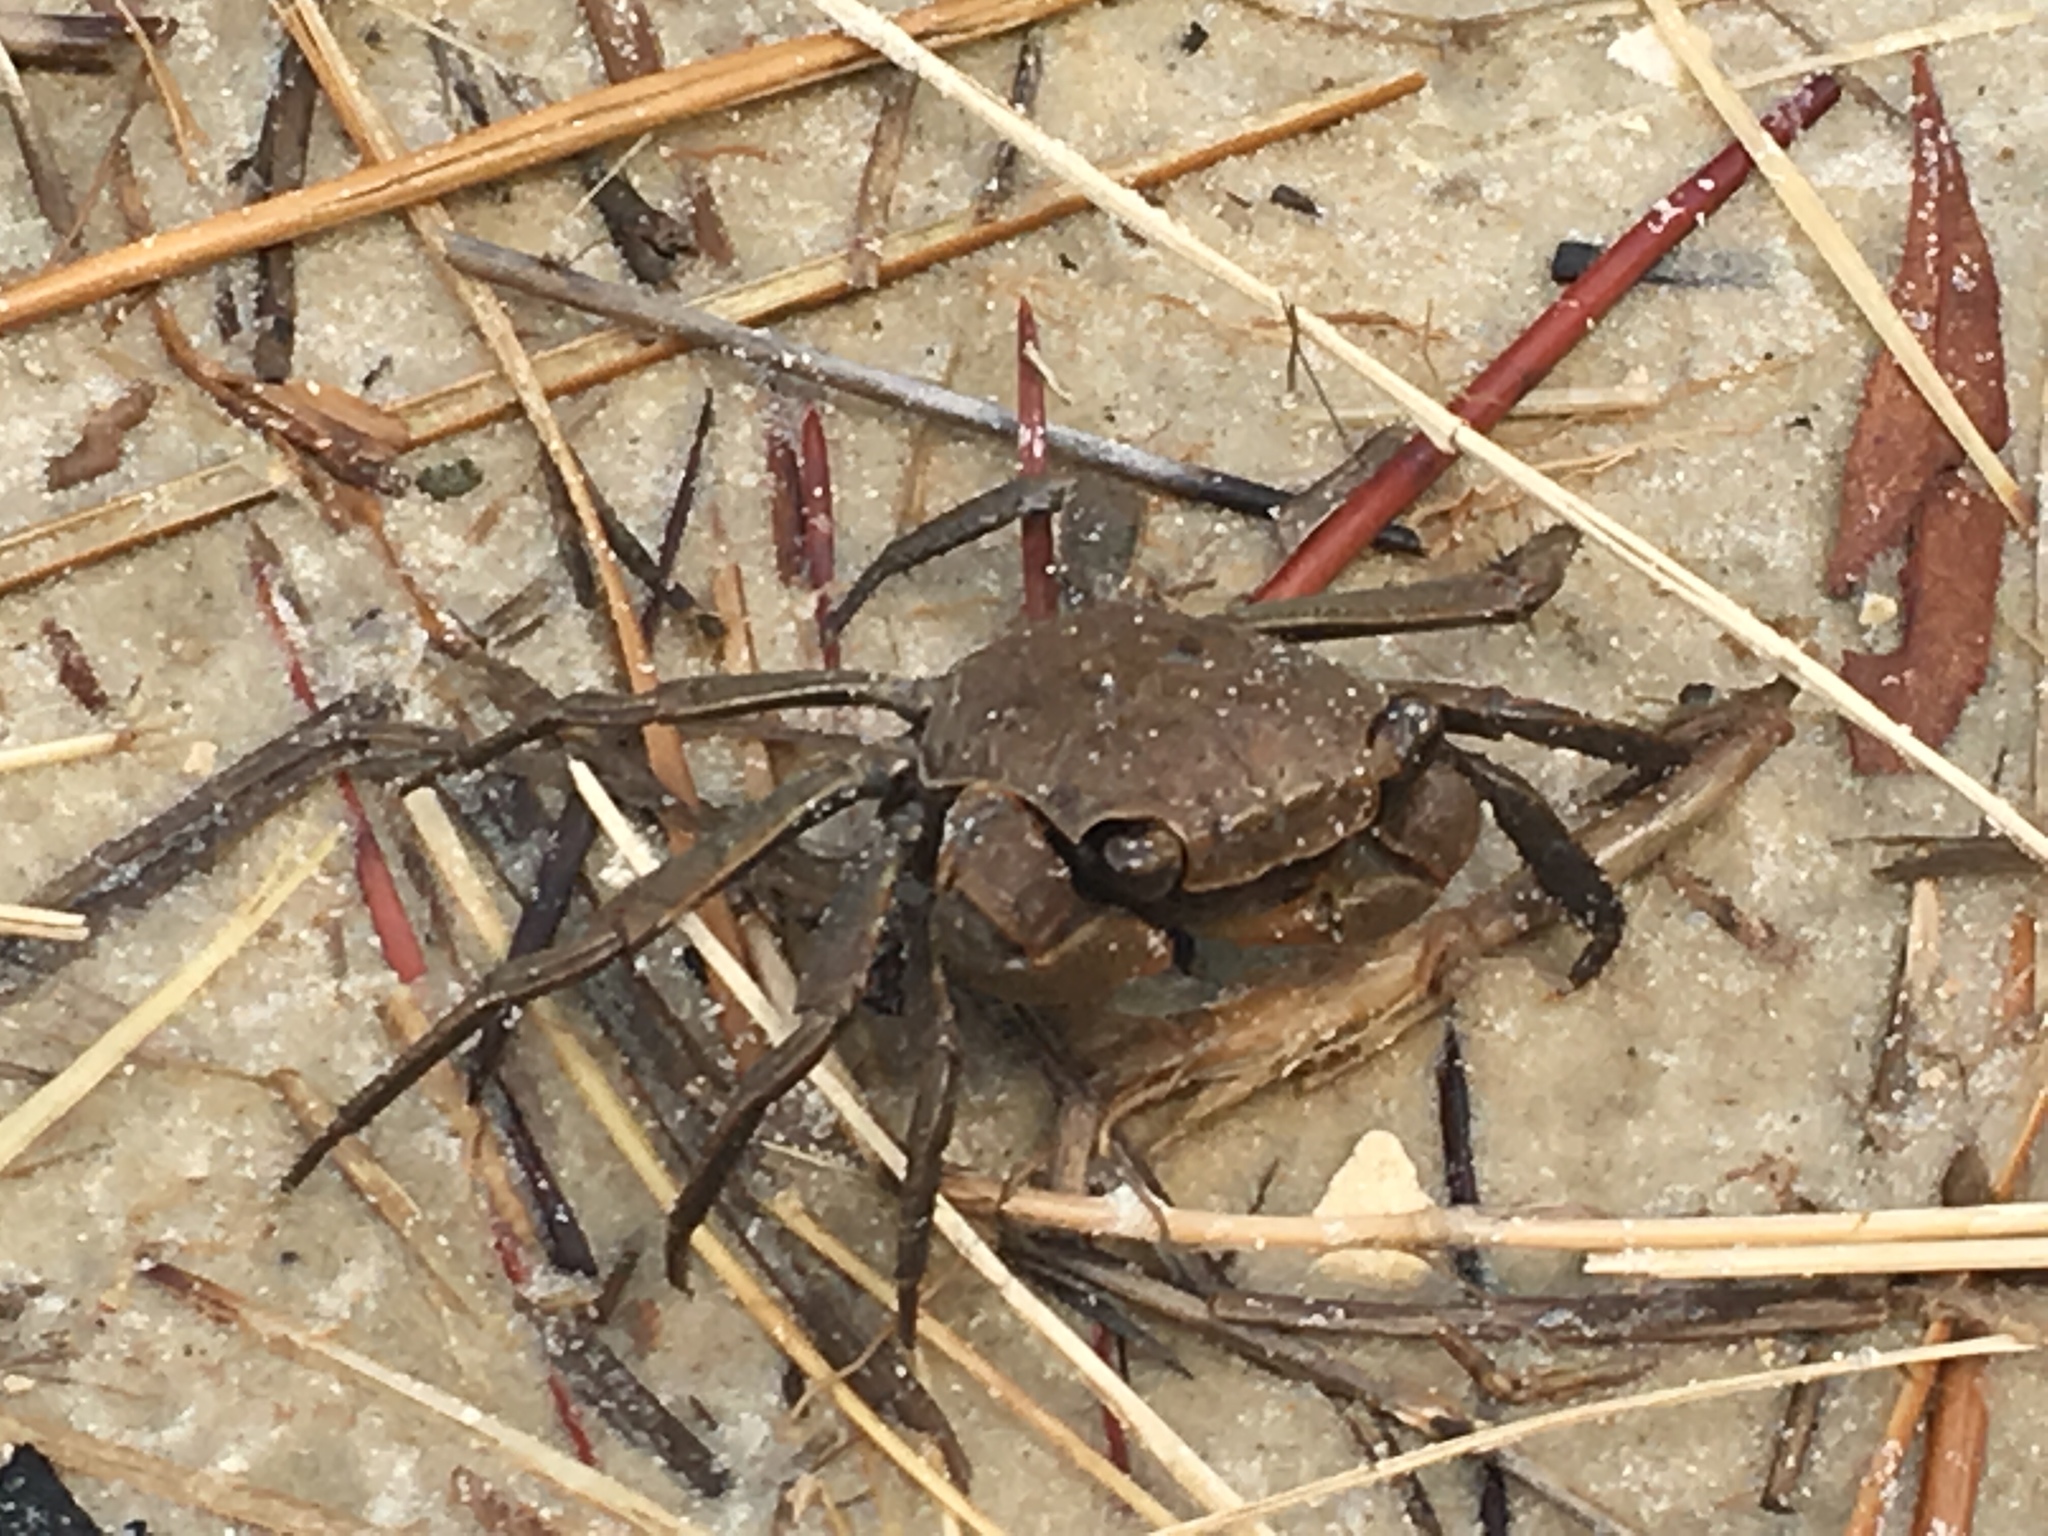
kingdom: Animalia
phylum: Arthropoda
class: Malacostraca
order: Decapoda
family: Sesarmidae
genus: Armases
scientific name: Armases cinereum
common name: Squareback marsh crab
